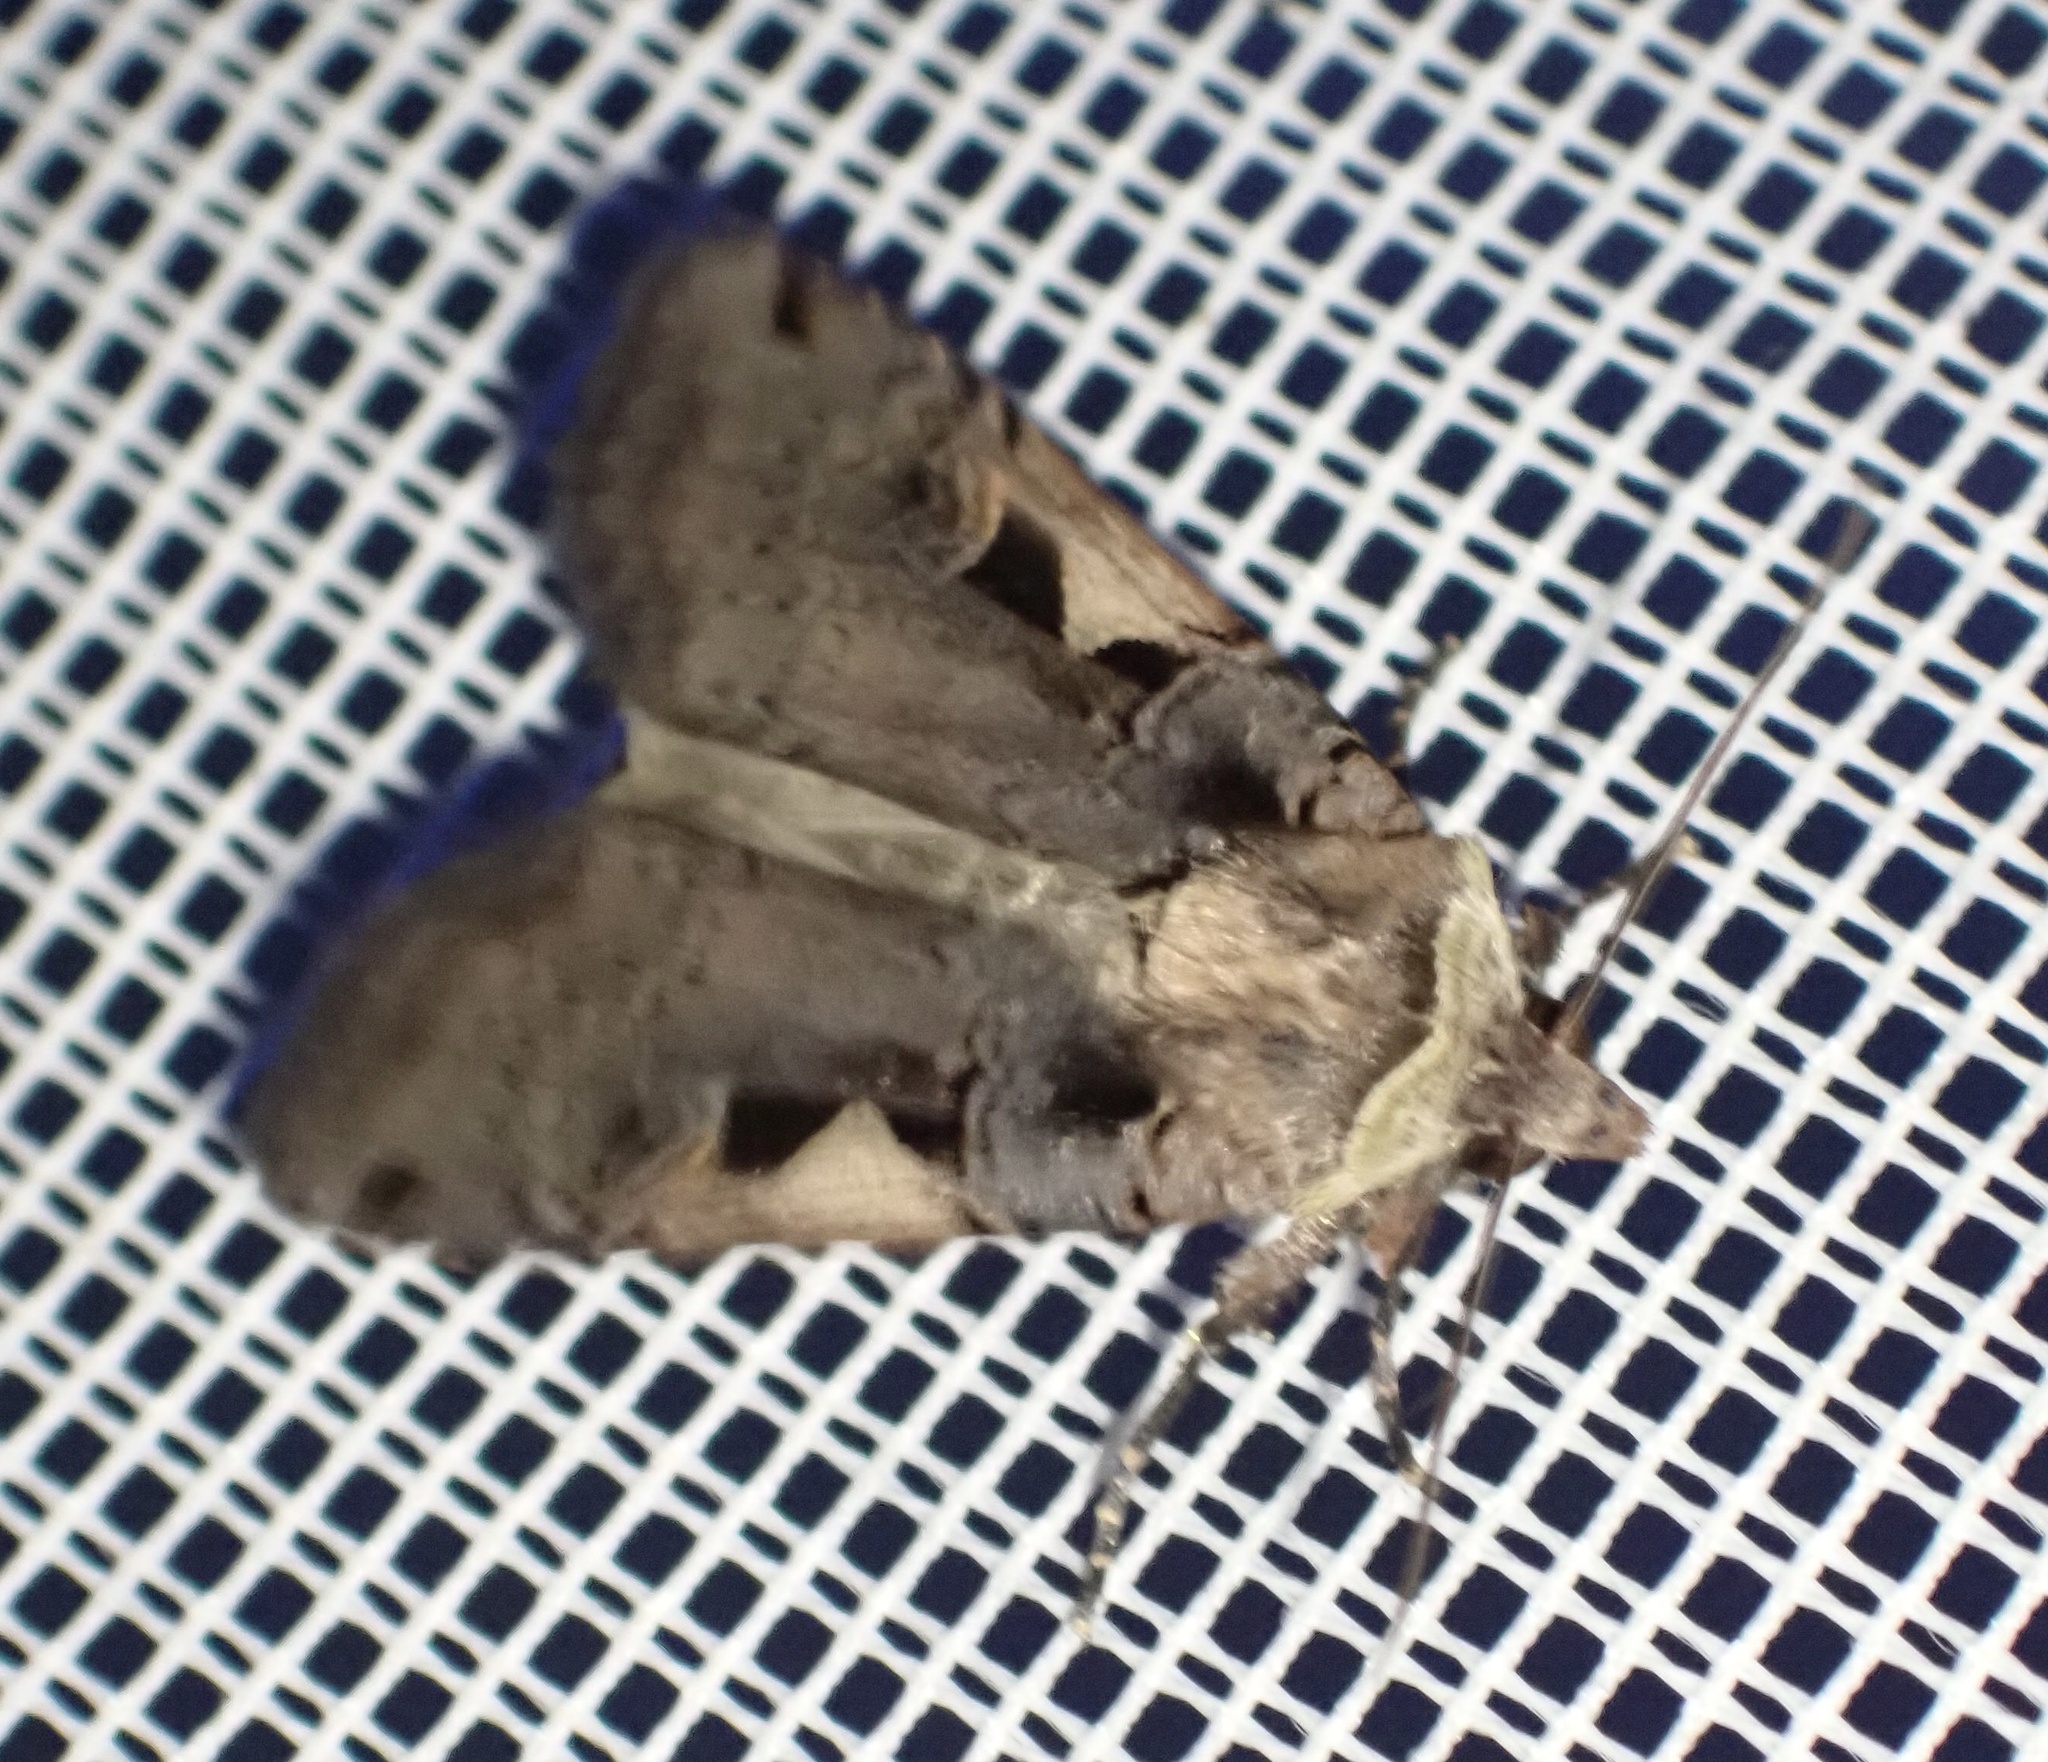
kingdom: Animalia
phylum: Arthropoda
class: Insecta
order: Lepidoptera
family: Noctuidae
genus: Xestia
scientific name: Xestia c-nigrum
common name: Setaceous hebrew character
